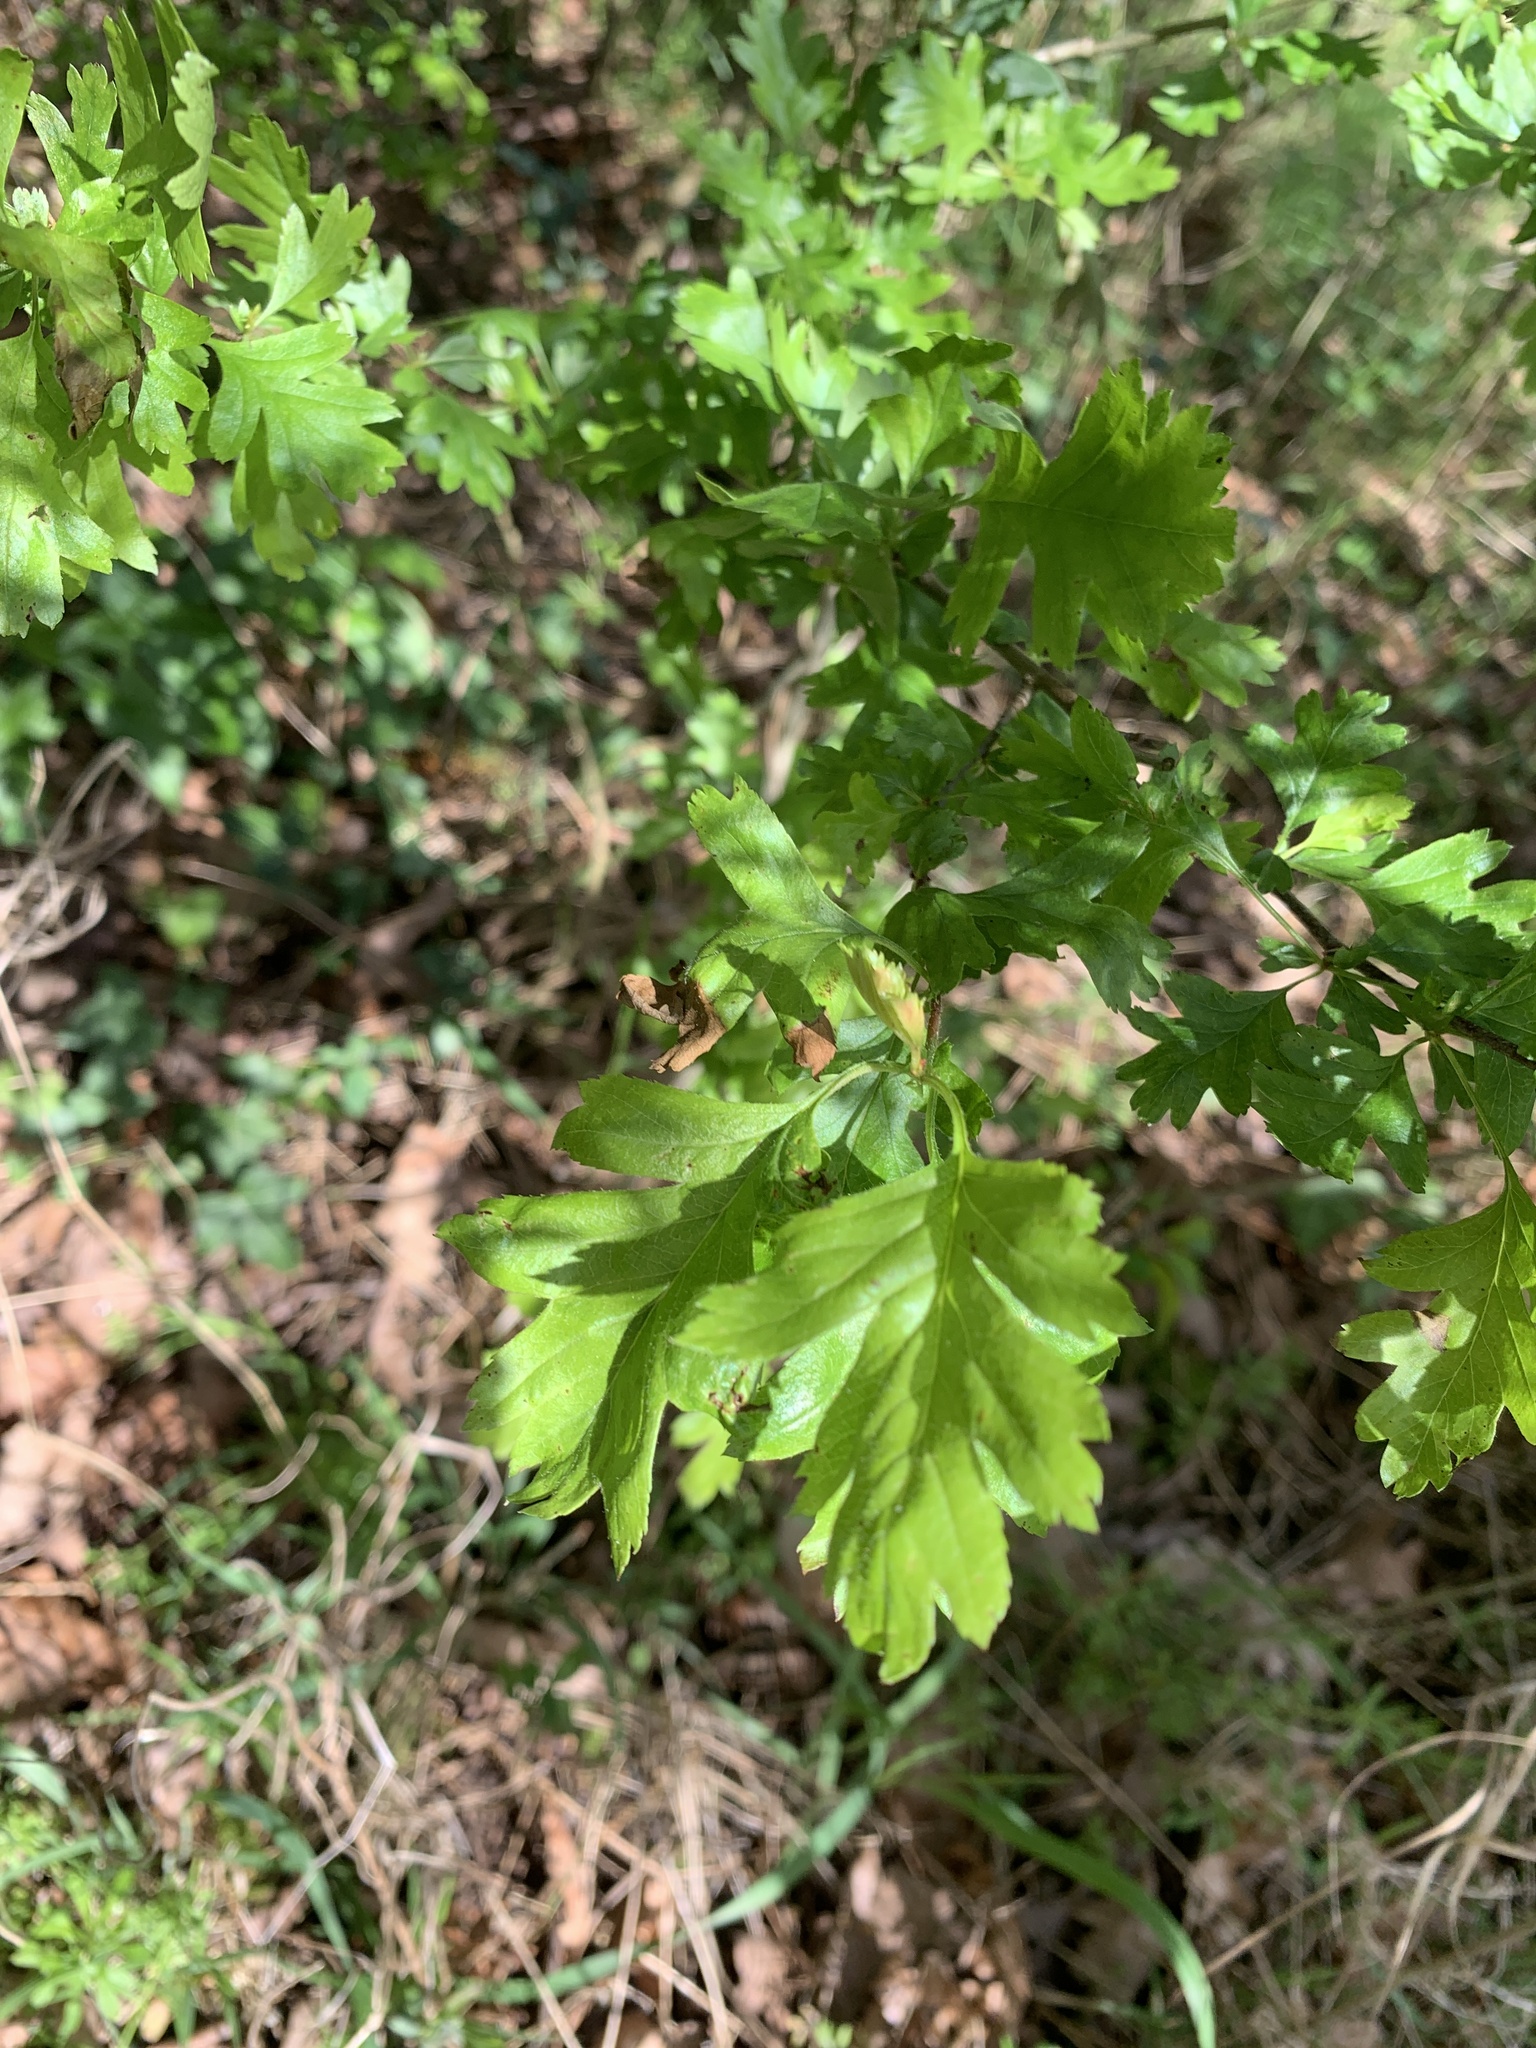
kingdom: Plantae
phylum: Tracheophyta
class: Magnoliopsida
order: Rosales
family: Rosaceae
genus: Crataegus
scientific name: Crataegus monogyna
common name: Hawthorn
